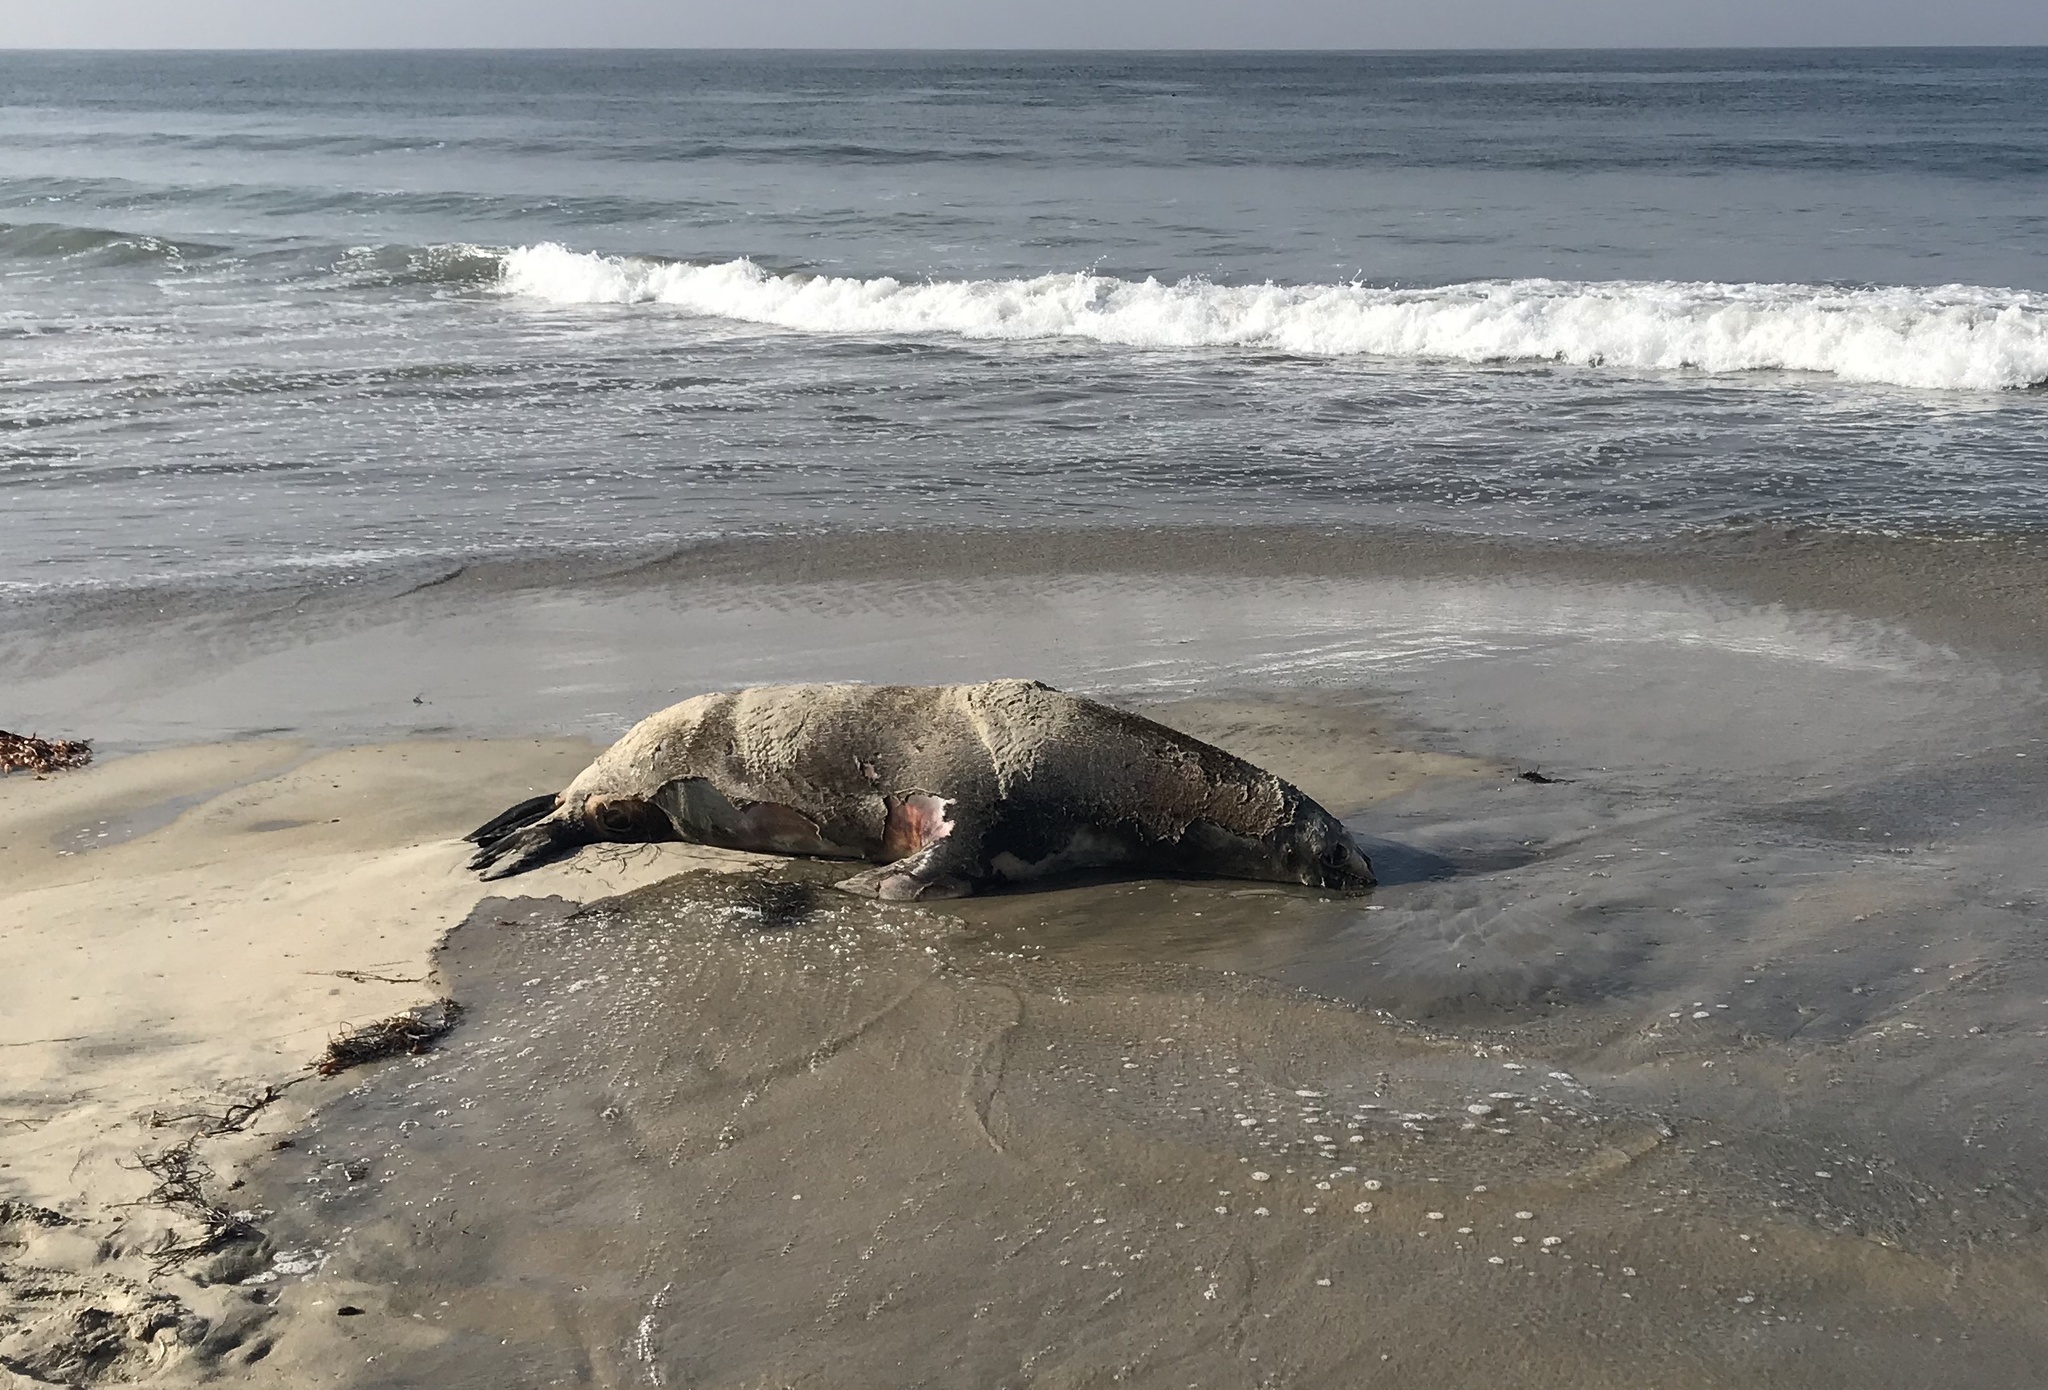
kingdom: Animalia
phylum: Chordata
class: Mammalia
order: Carnivora
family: Otariidae
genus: Zalophus
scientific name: Zalophus californianus
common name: California sea lion
